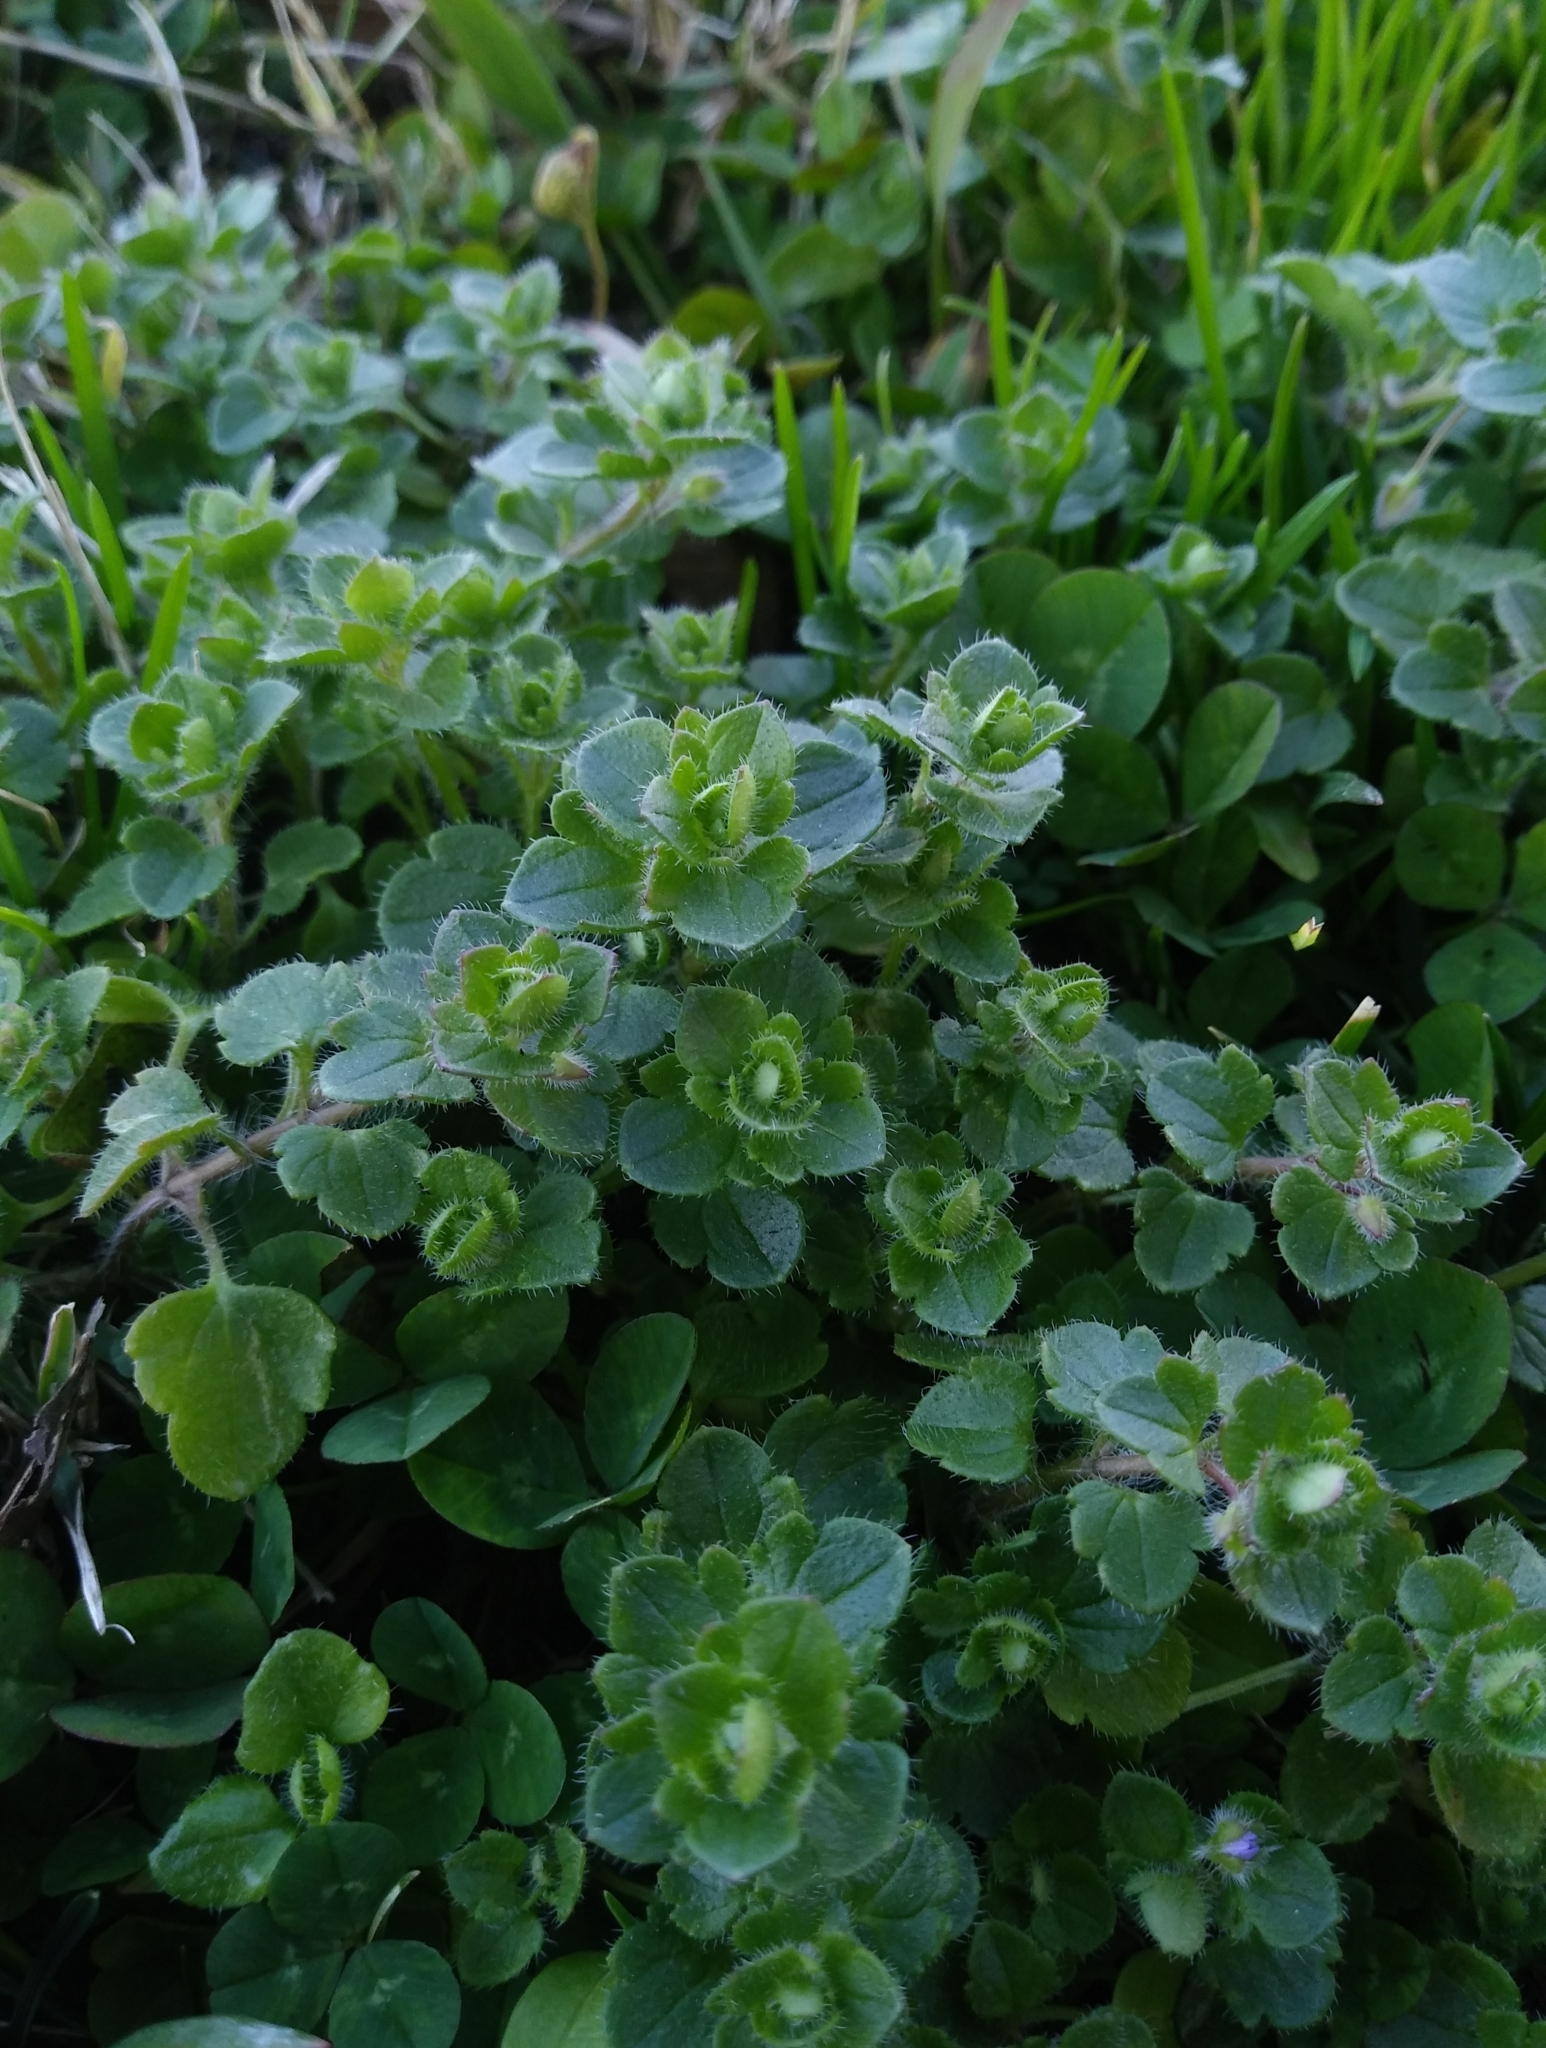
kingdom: Plantae
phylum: Tracheophyta
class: Magnoliopsida
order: Lamiales
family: Plantaginaceae
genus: Veronica
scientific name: Veronica hederifolia
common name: Ivy-leaved speedwell
